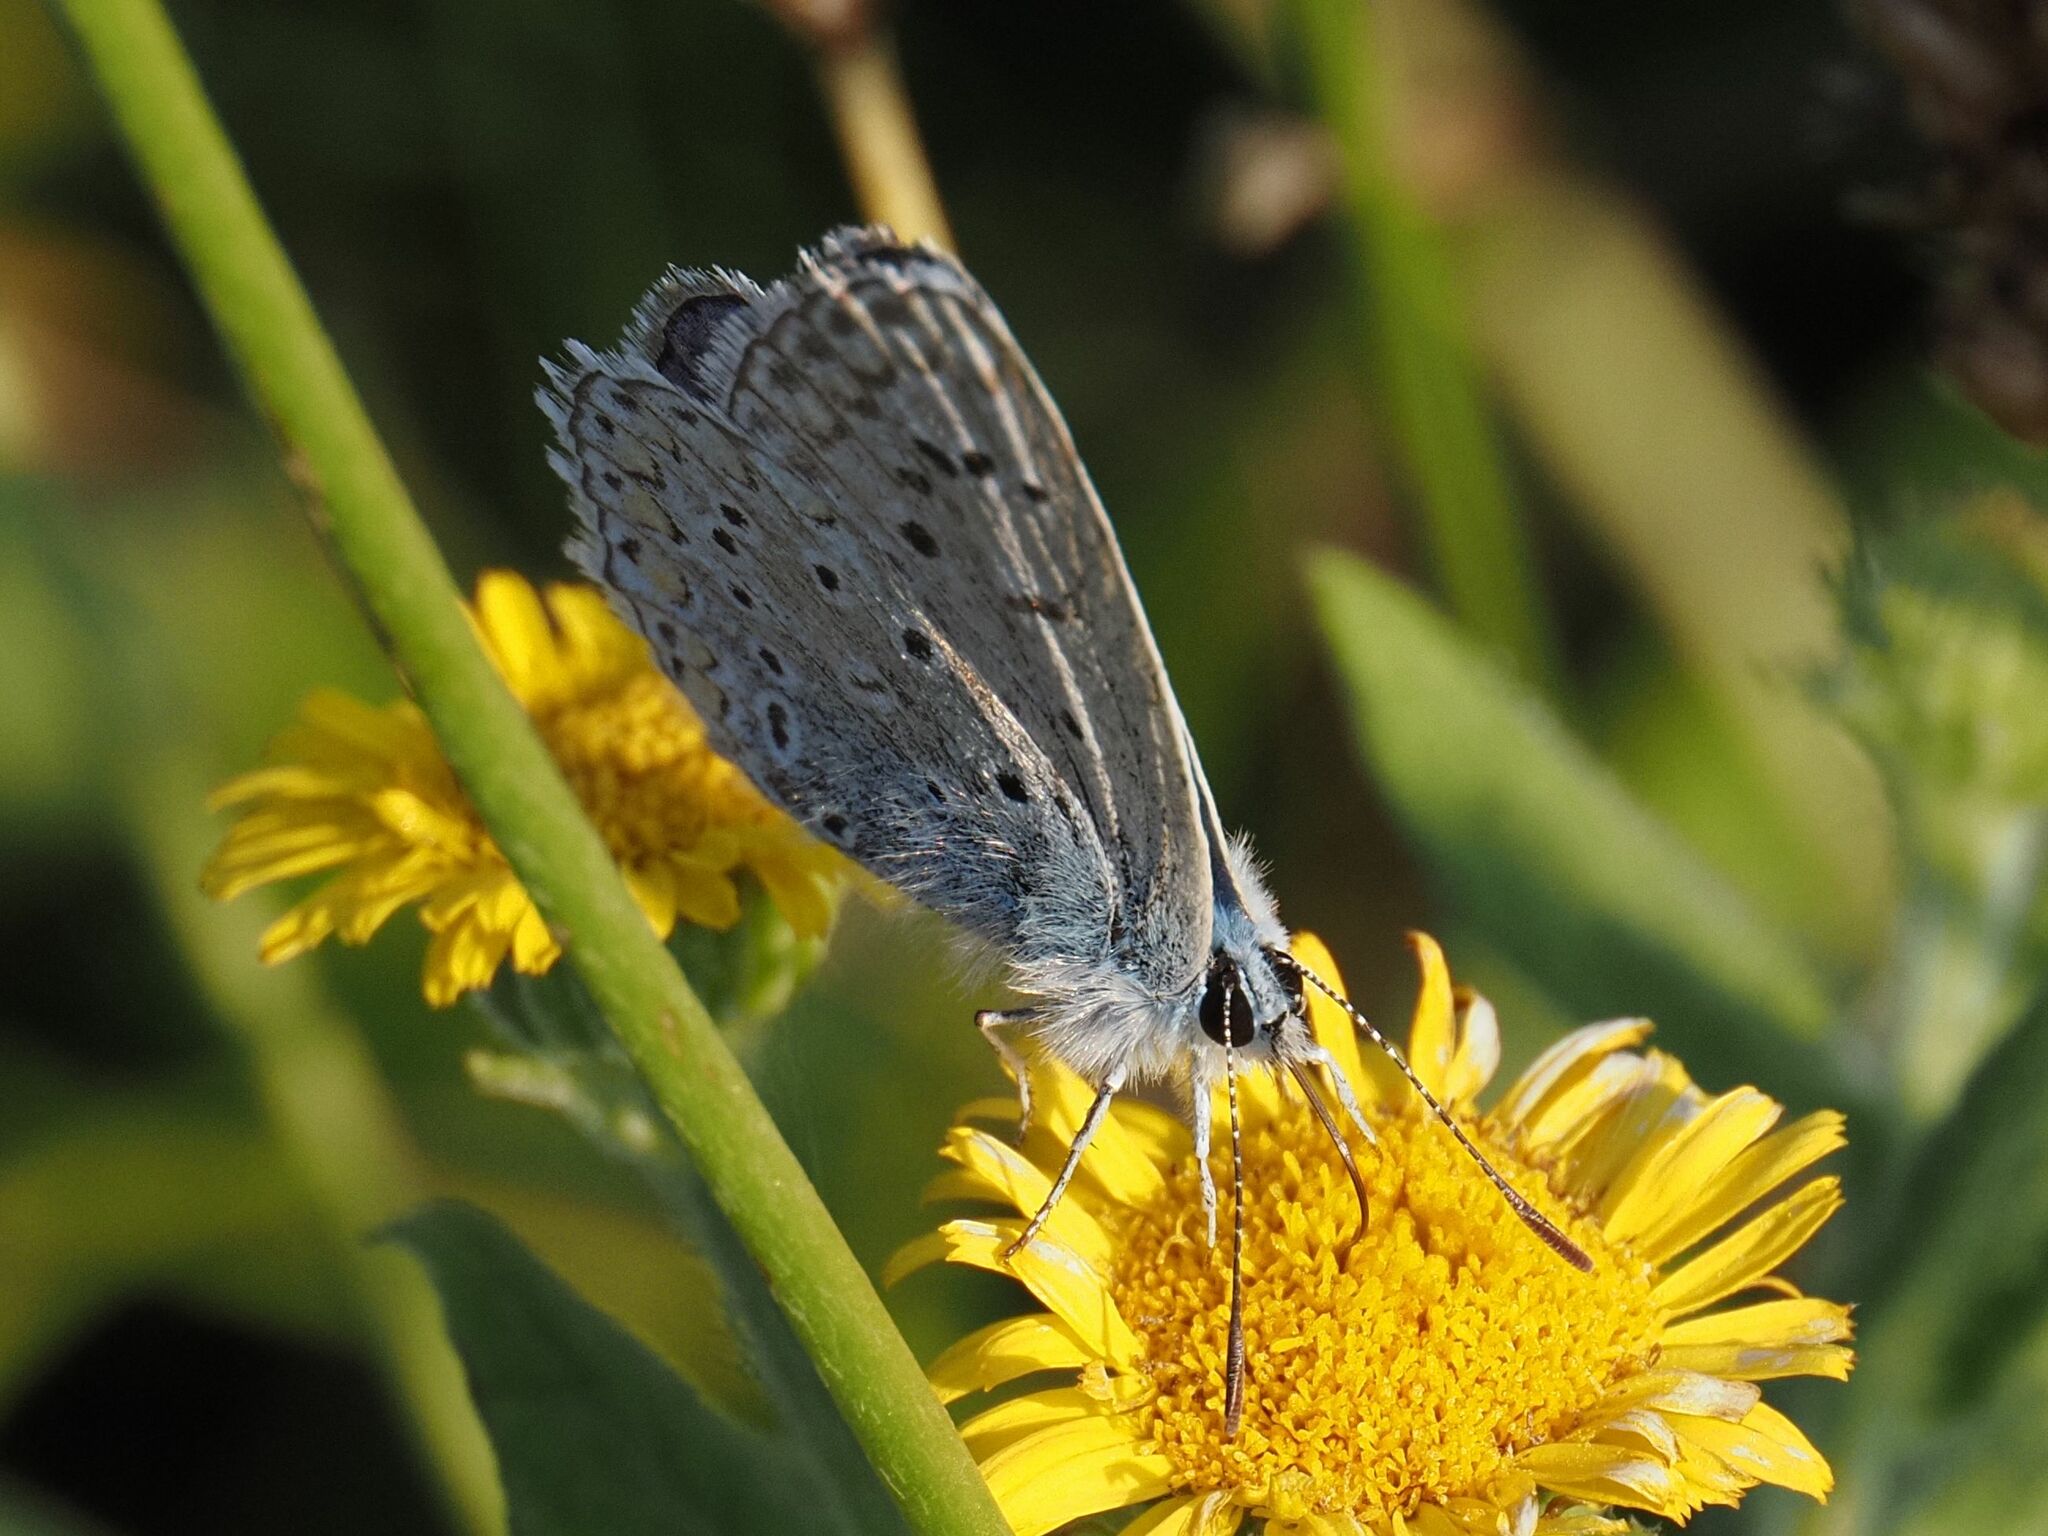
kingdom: Animalia
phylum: Arthropoda
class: Insecta
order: Lepidoptera
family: Lycaenidae
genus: Polyommatus
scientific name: Polyommatus icarus
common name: Common blue
